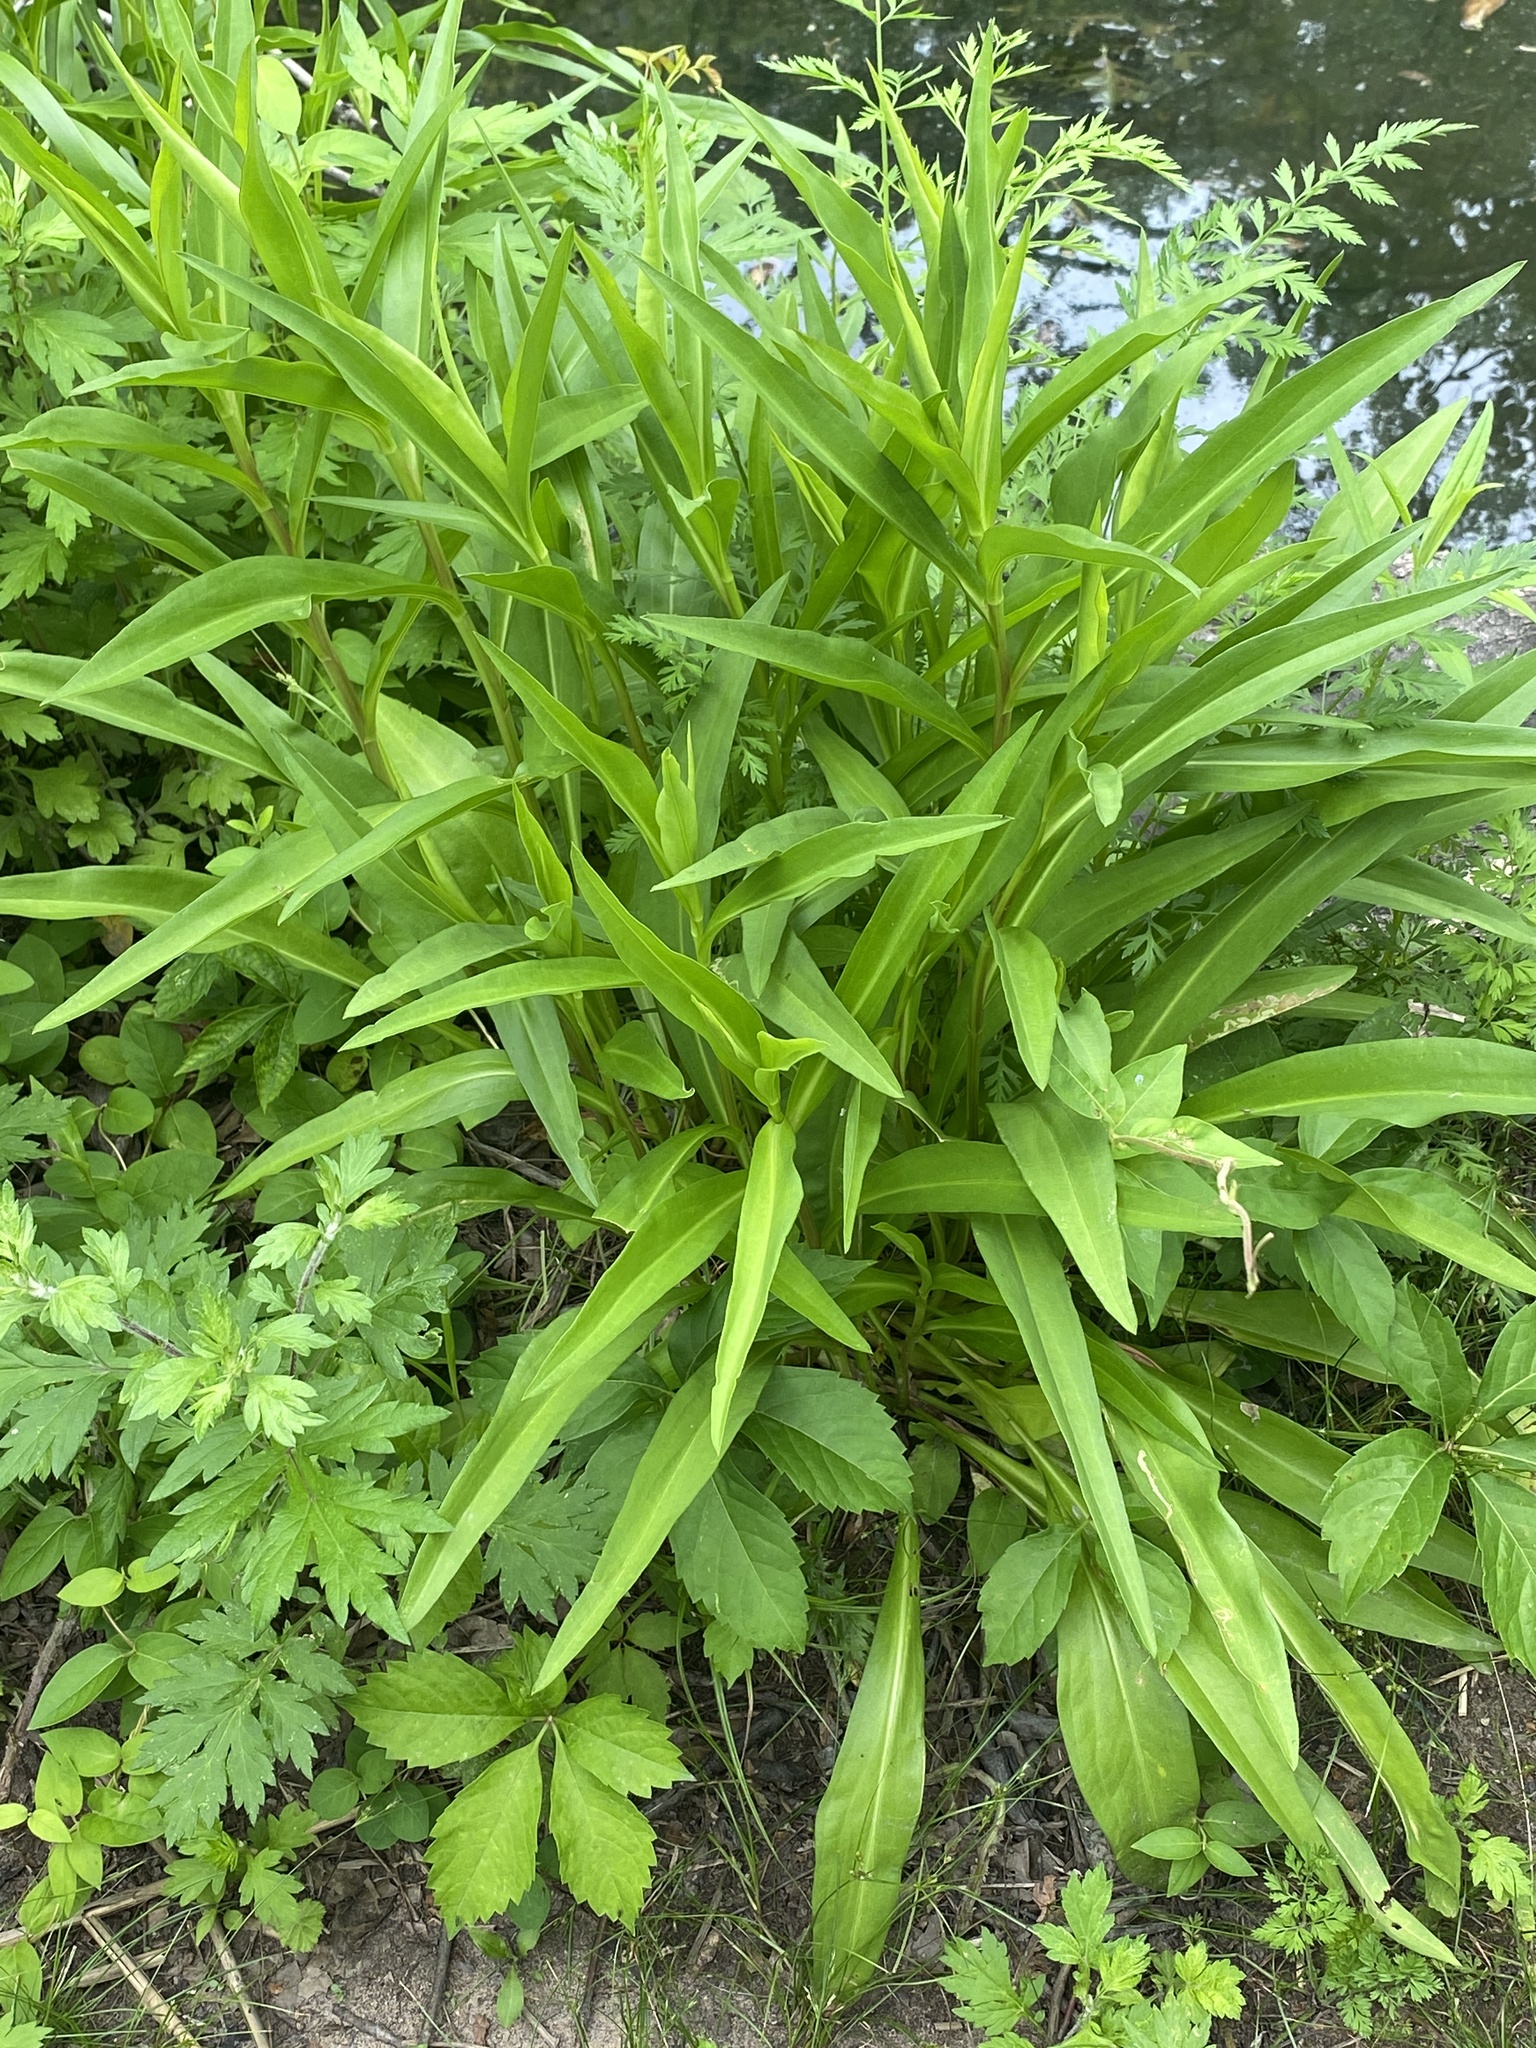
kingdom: Plantae
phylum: Tracheophyta
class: Magnoliopsida
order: Asterales
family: Asteraceae
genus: Solidago
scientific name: Solidago sempervirens
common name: Salt-marsh goldenrod
